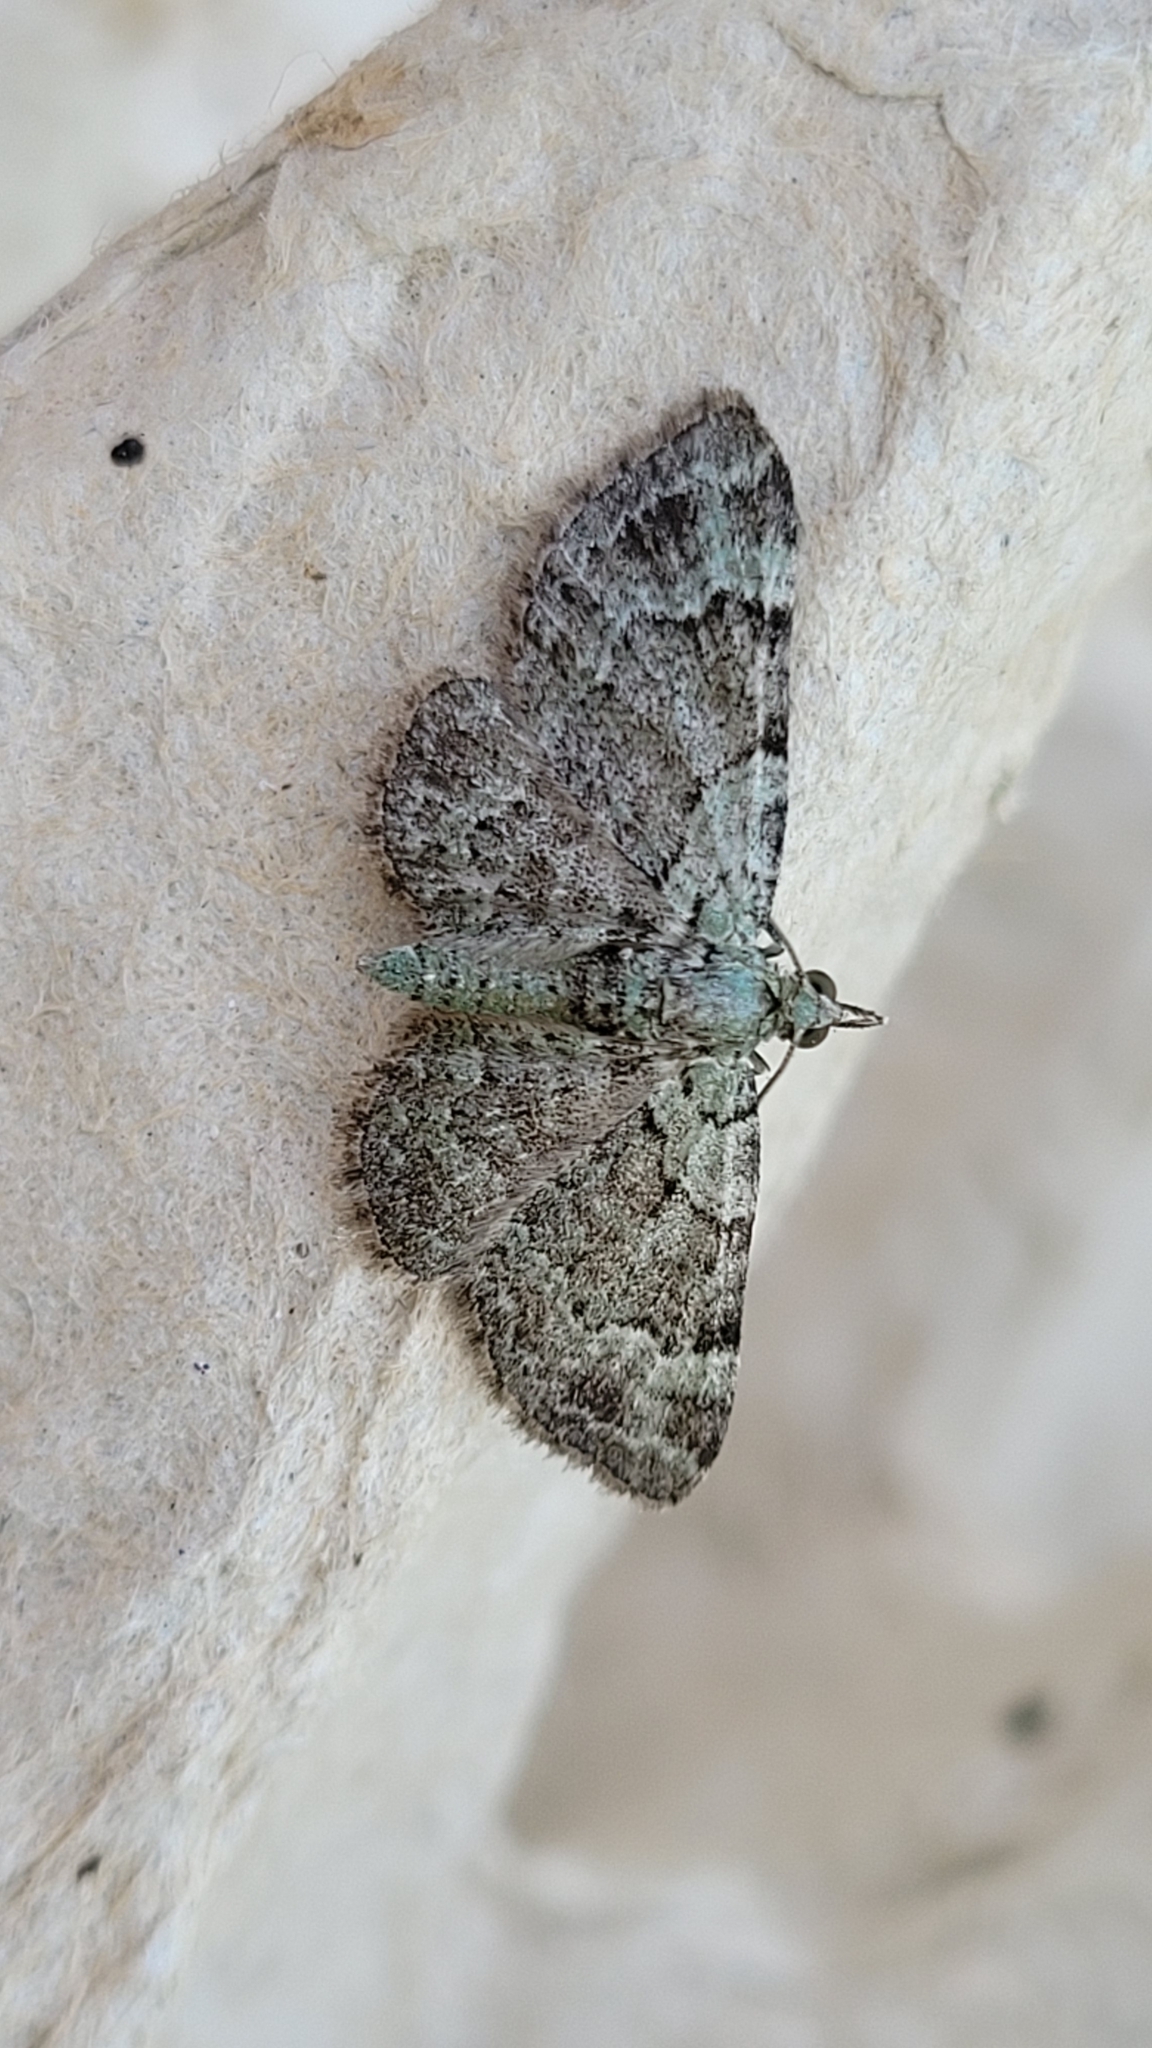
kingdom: Animalia
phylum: Arthropoda
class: Insecta
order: Lepidoptera
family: Geometridae
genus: Pasiphila
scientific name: Pasiphila rectangulata
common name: Green pug
